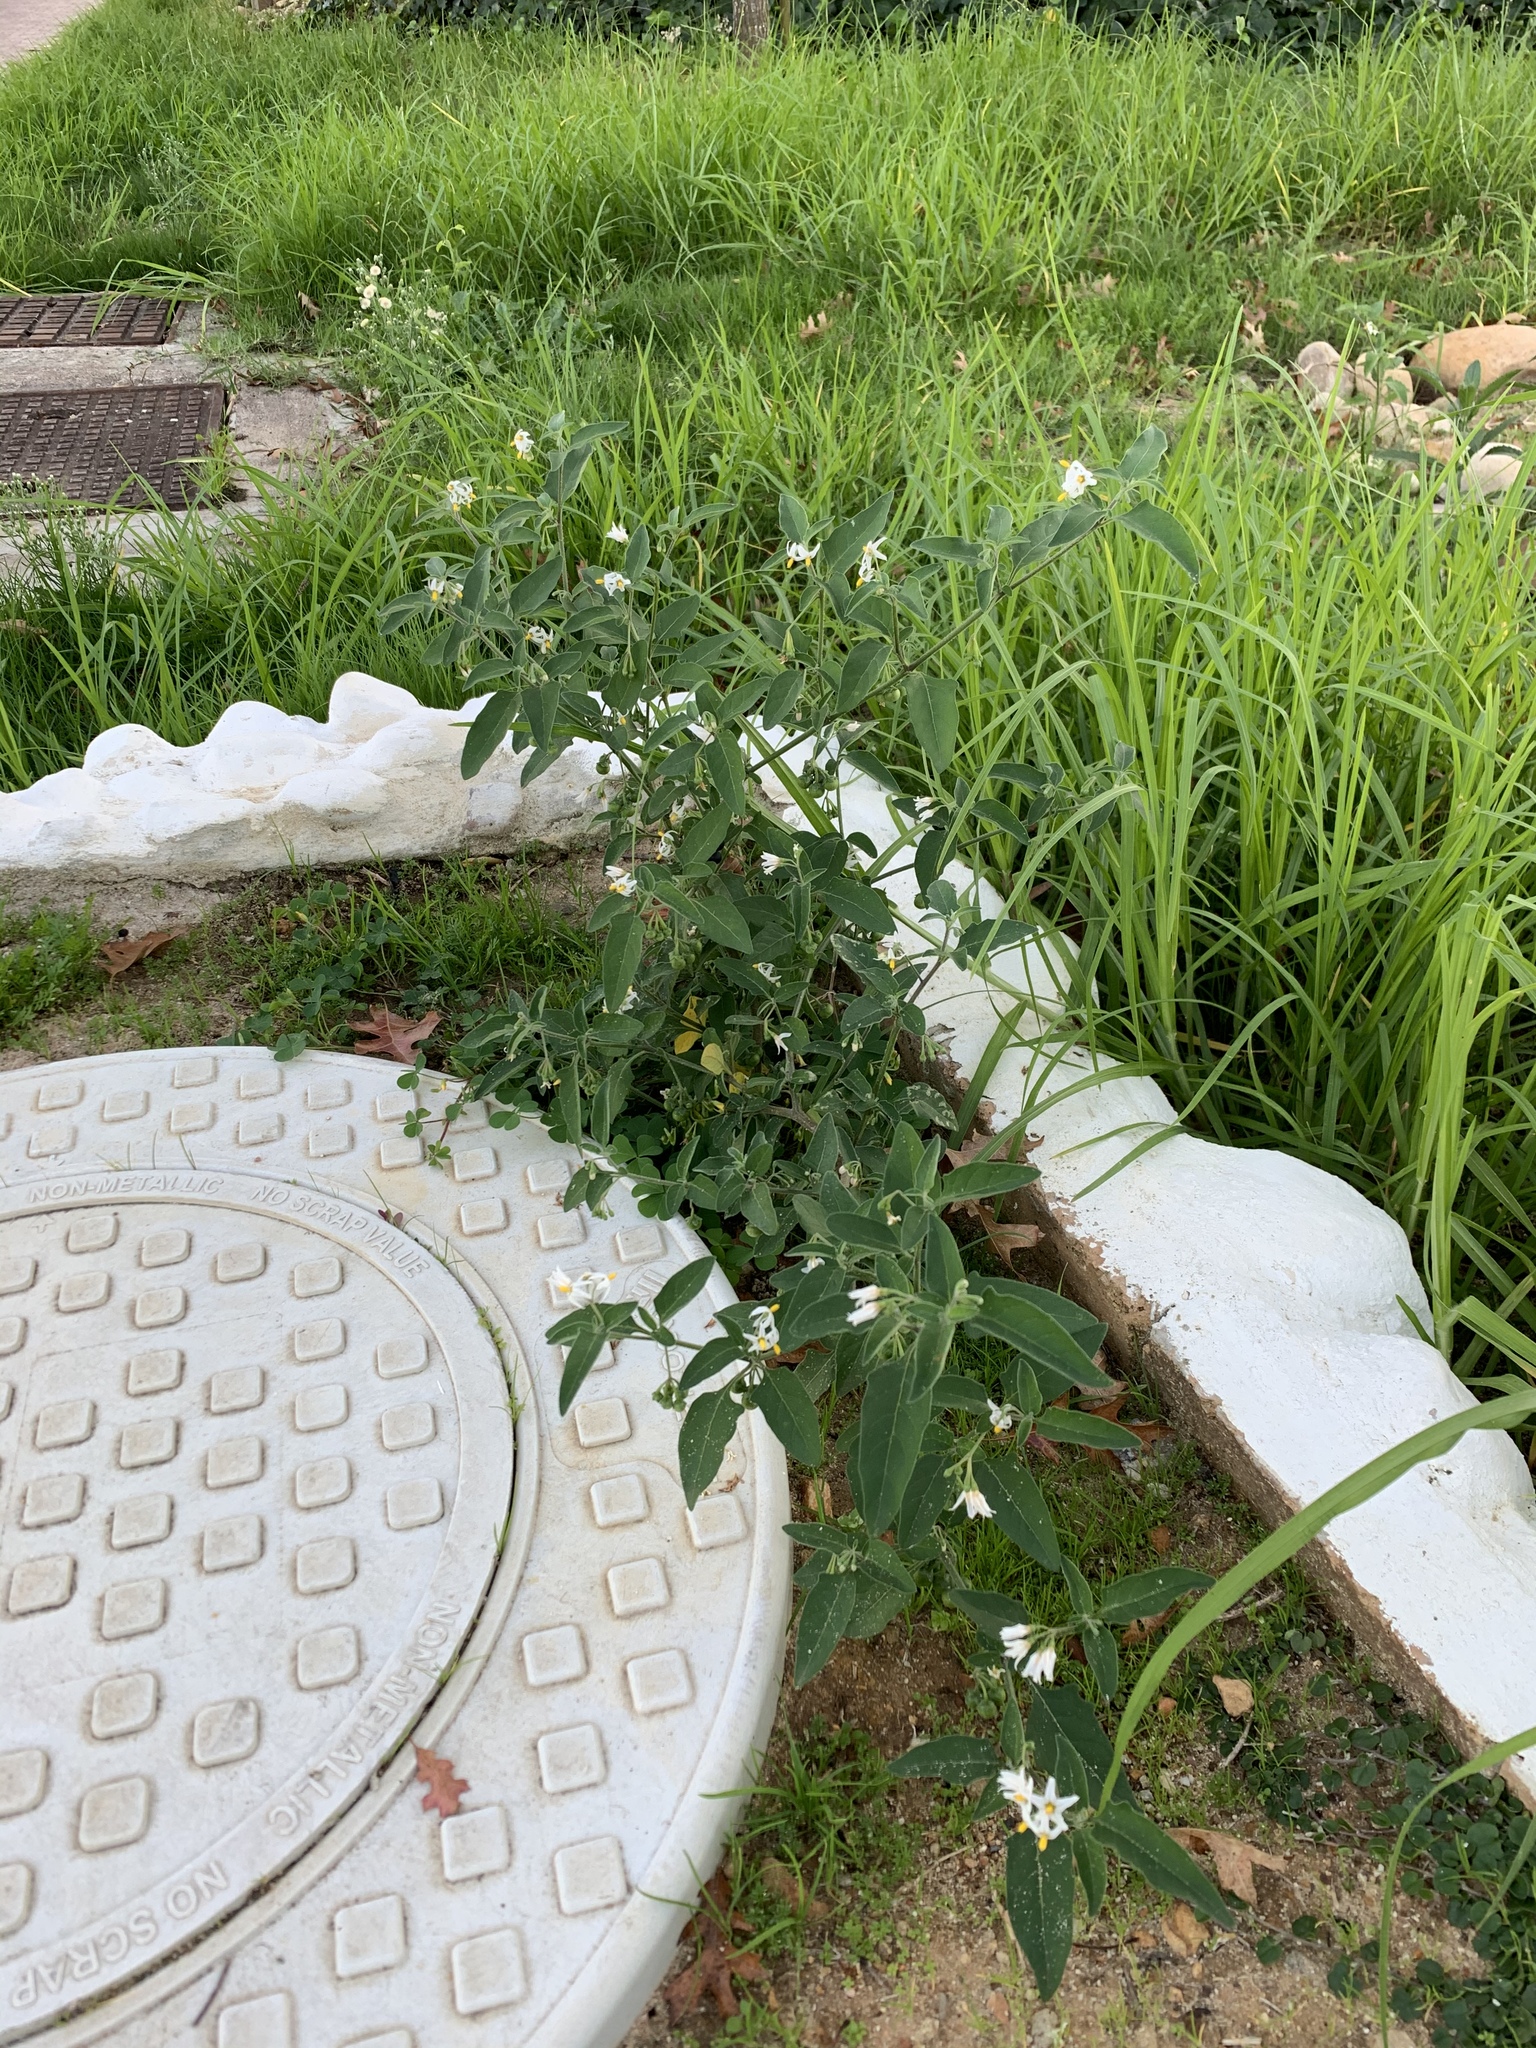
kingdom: Plantae
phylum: Tracheophyta
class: Magnoliopsida
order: Solanales
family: Solanaceae
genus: Solanum
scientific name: Solanum chenopodioides
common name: Tall nightshade
